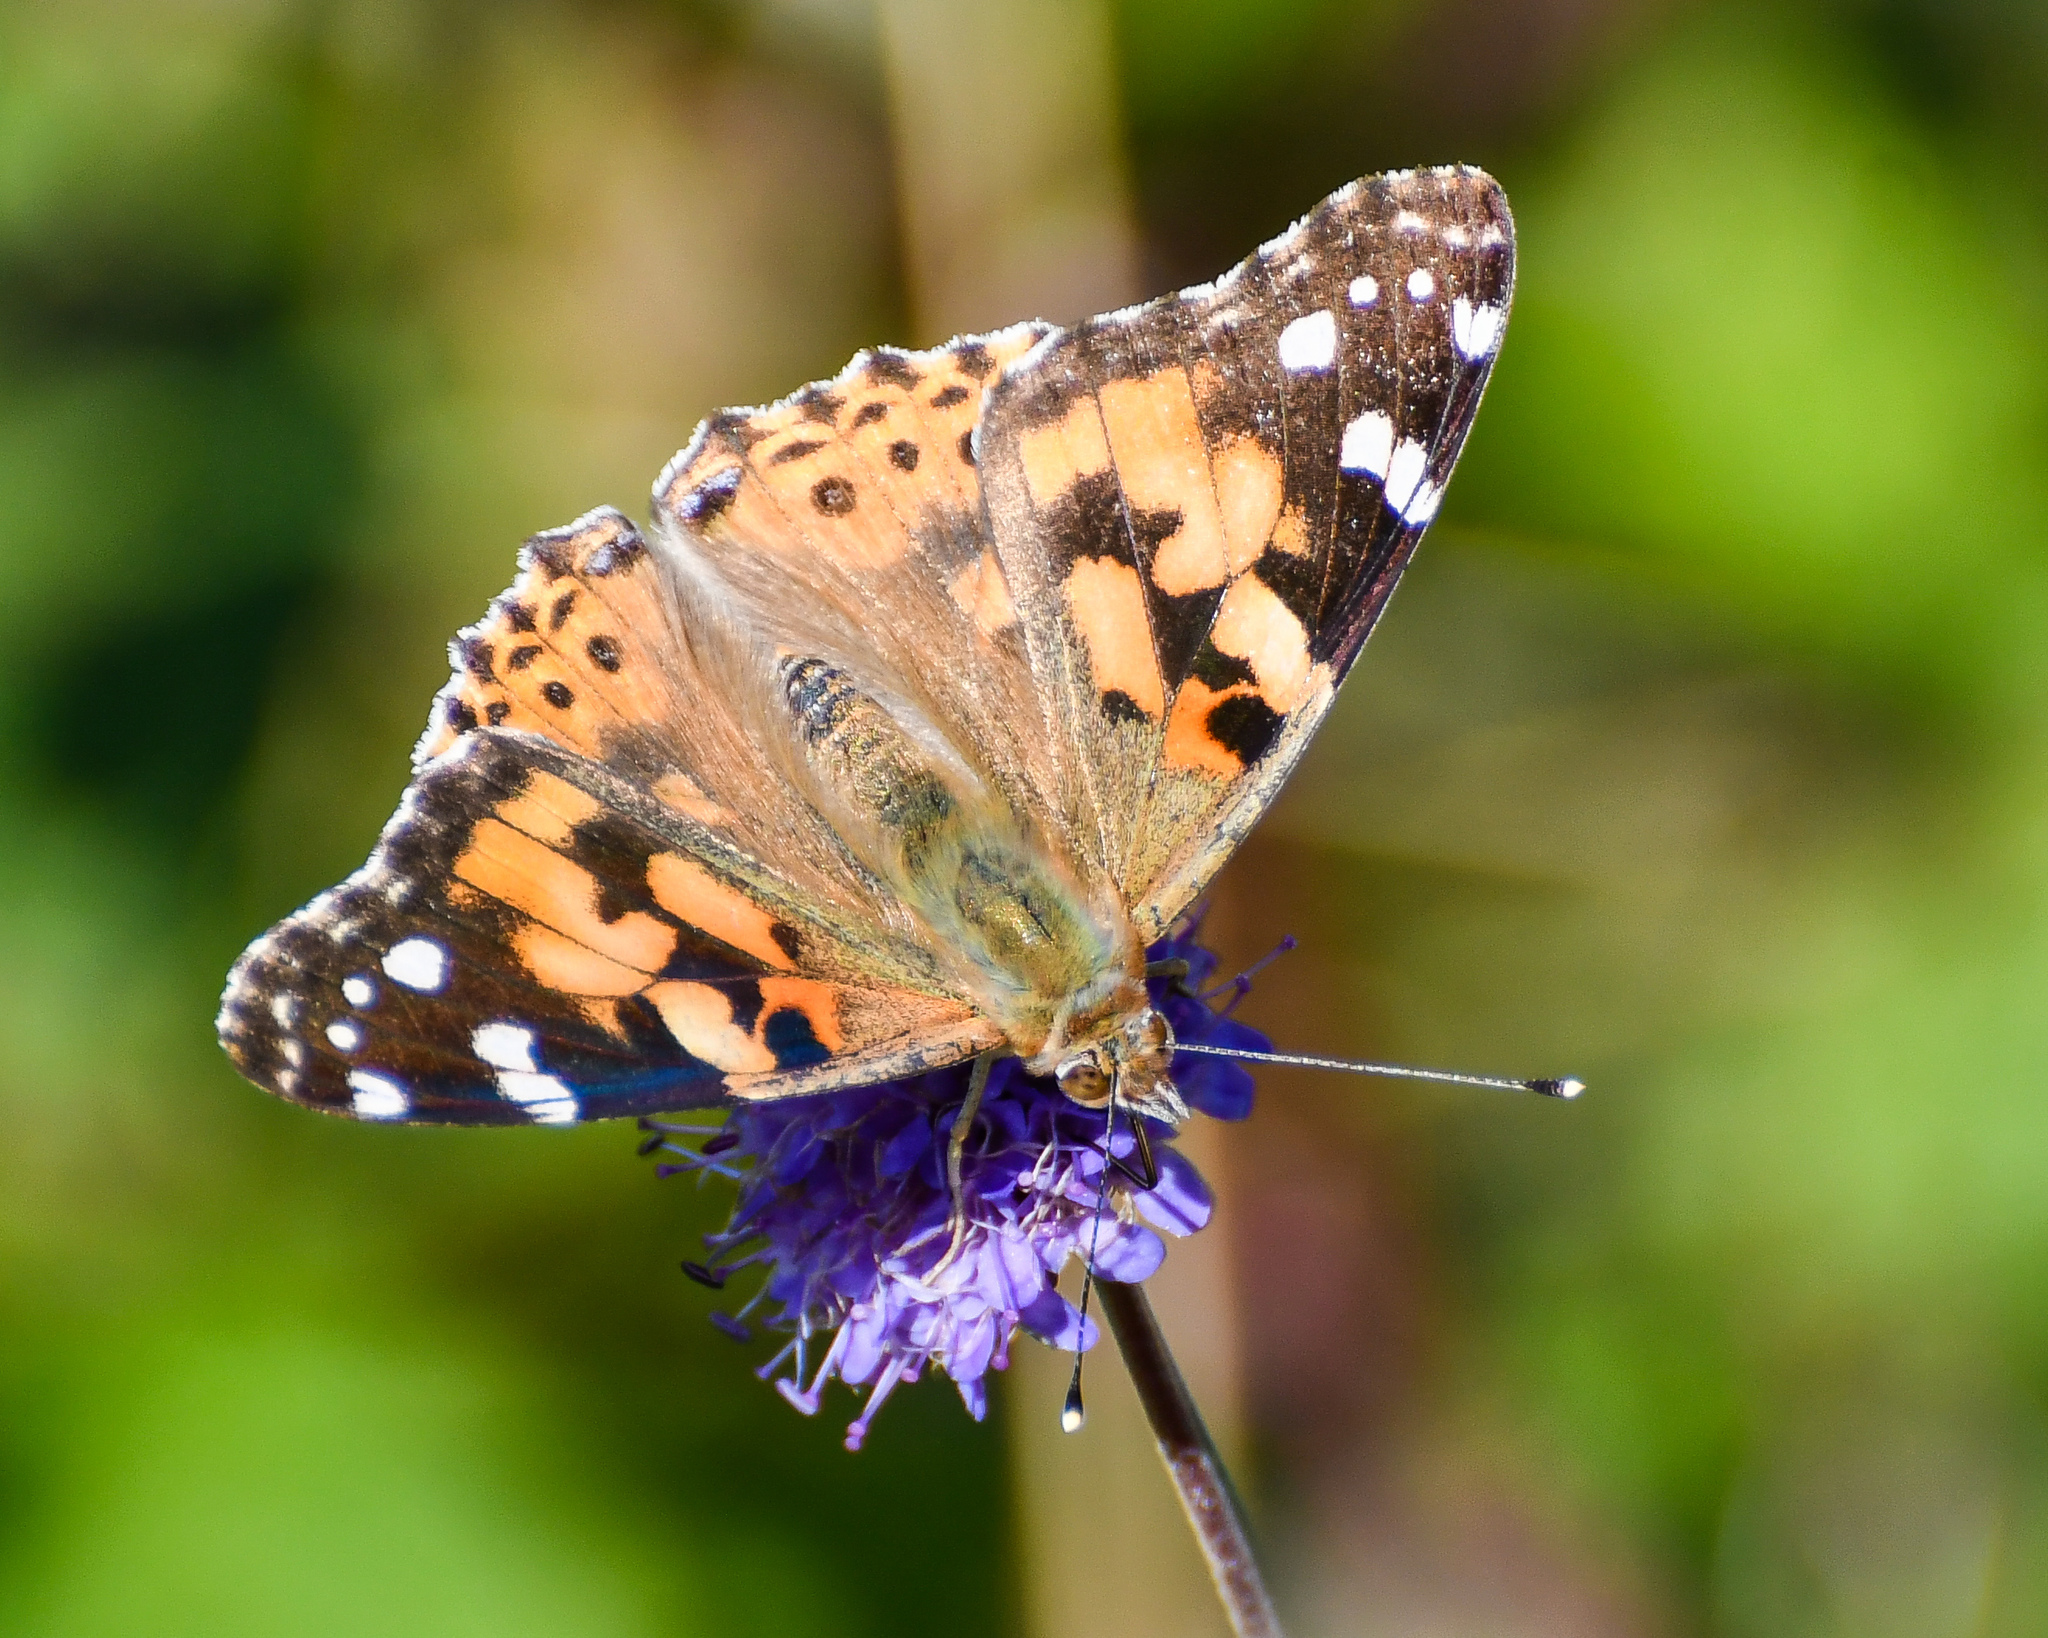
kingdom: Animalia
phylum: Arthropoda
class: Insecta
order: Lepidoptera
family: Nymphalidae
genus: Vanessa
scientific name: Vanessa cardui
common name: Painted lady
